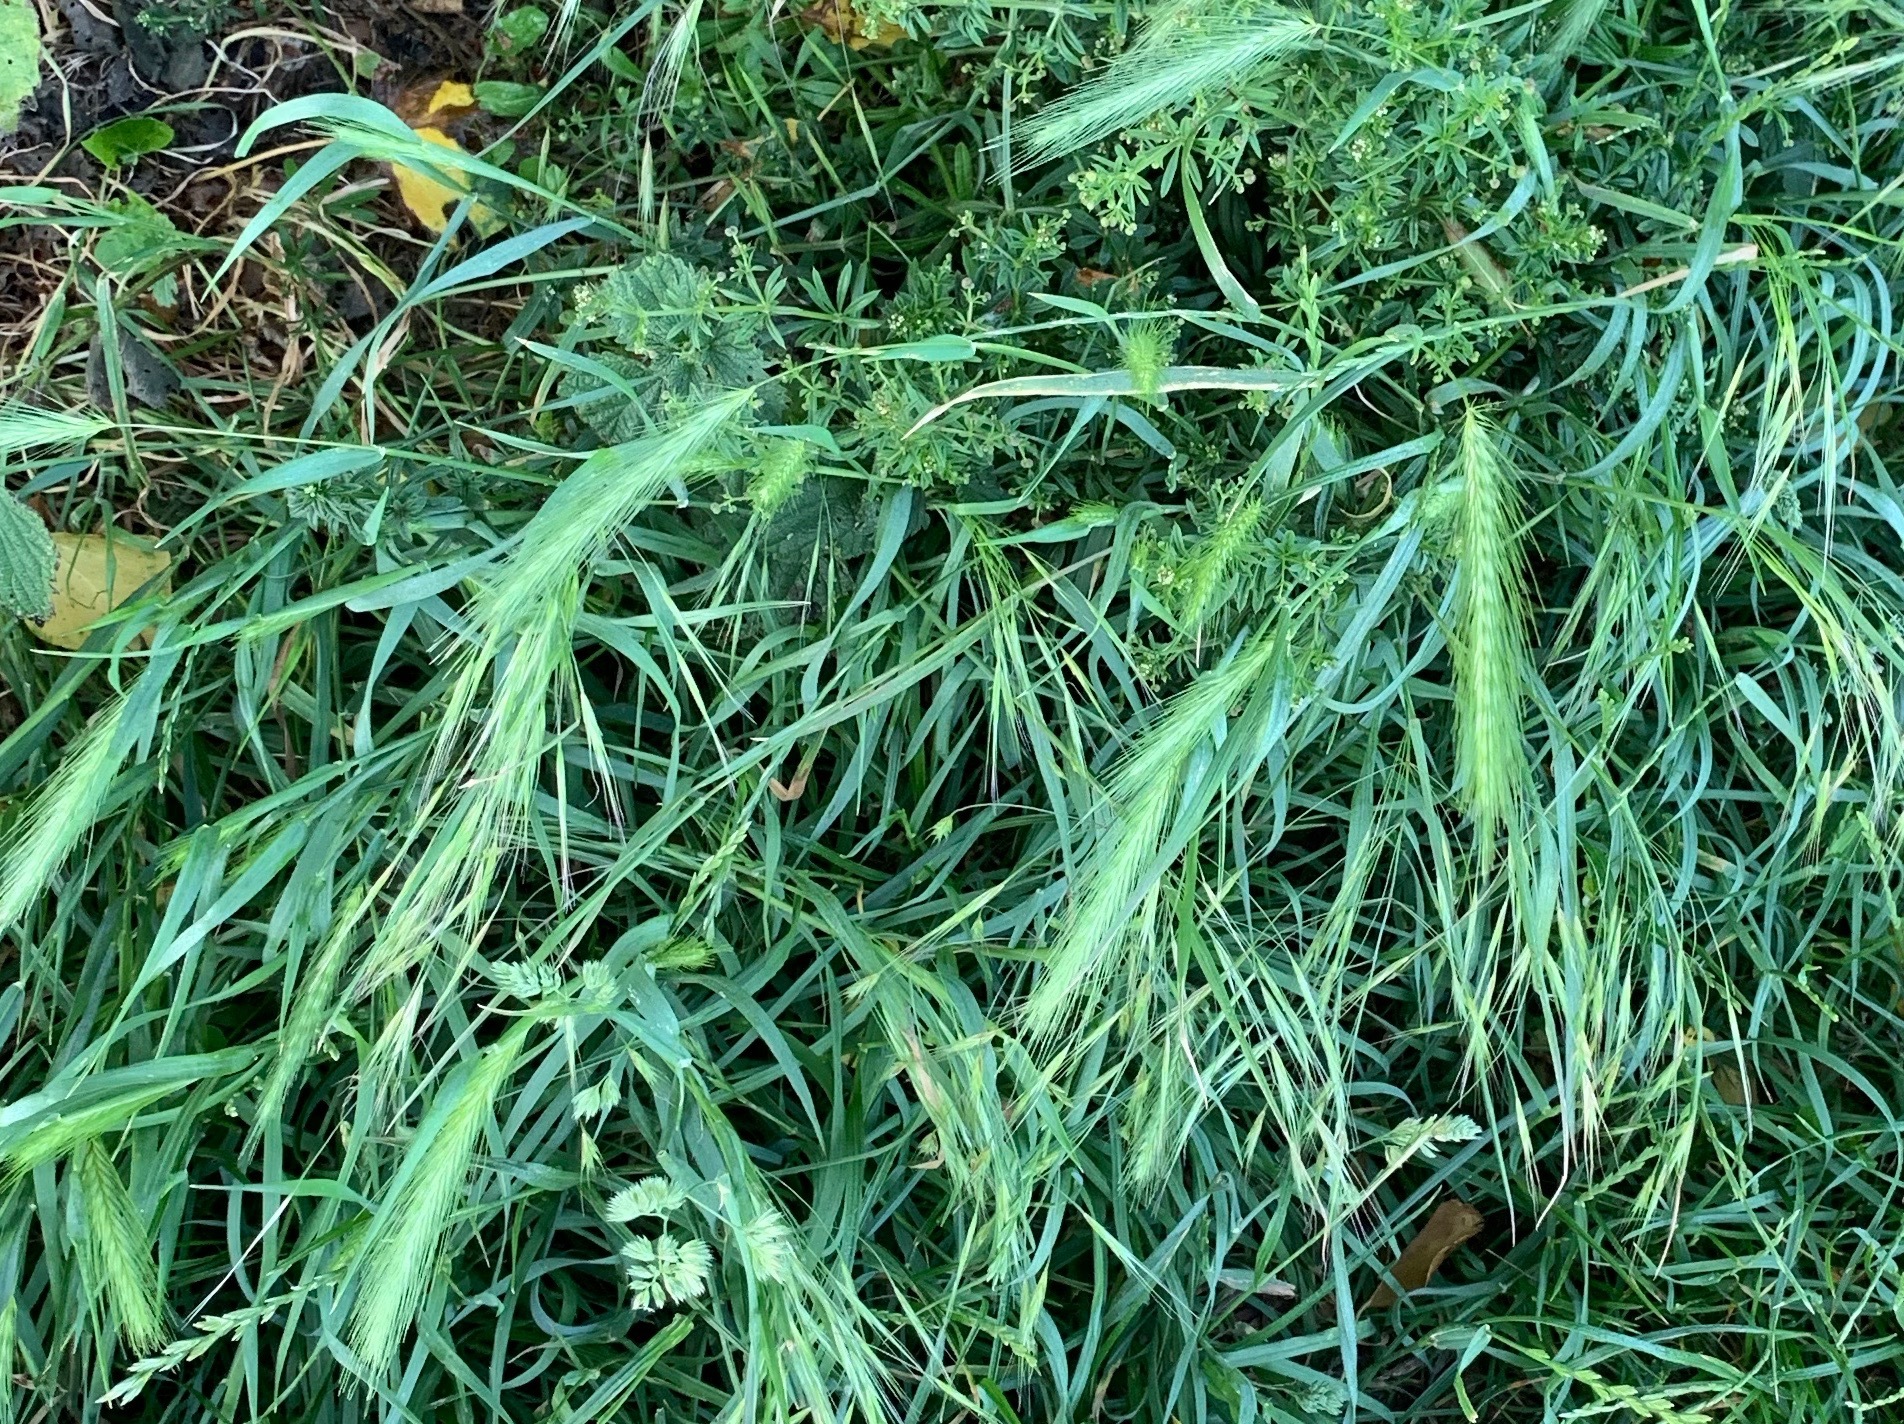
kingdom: Plantae
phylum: Tracheophyta
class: Liliopsida
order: Poales
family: Poaceae
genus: Hordeum
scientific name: Hordeum murinum
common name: Wall barley
